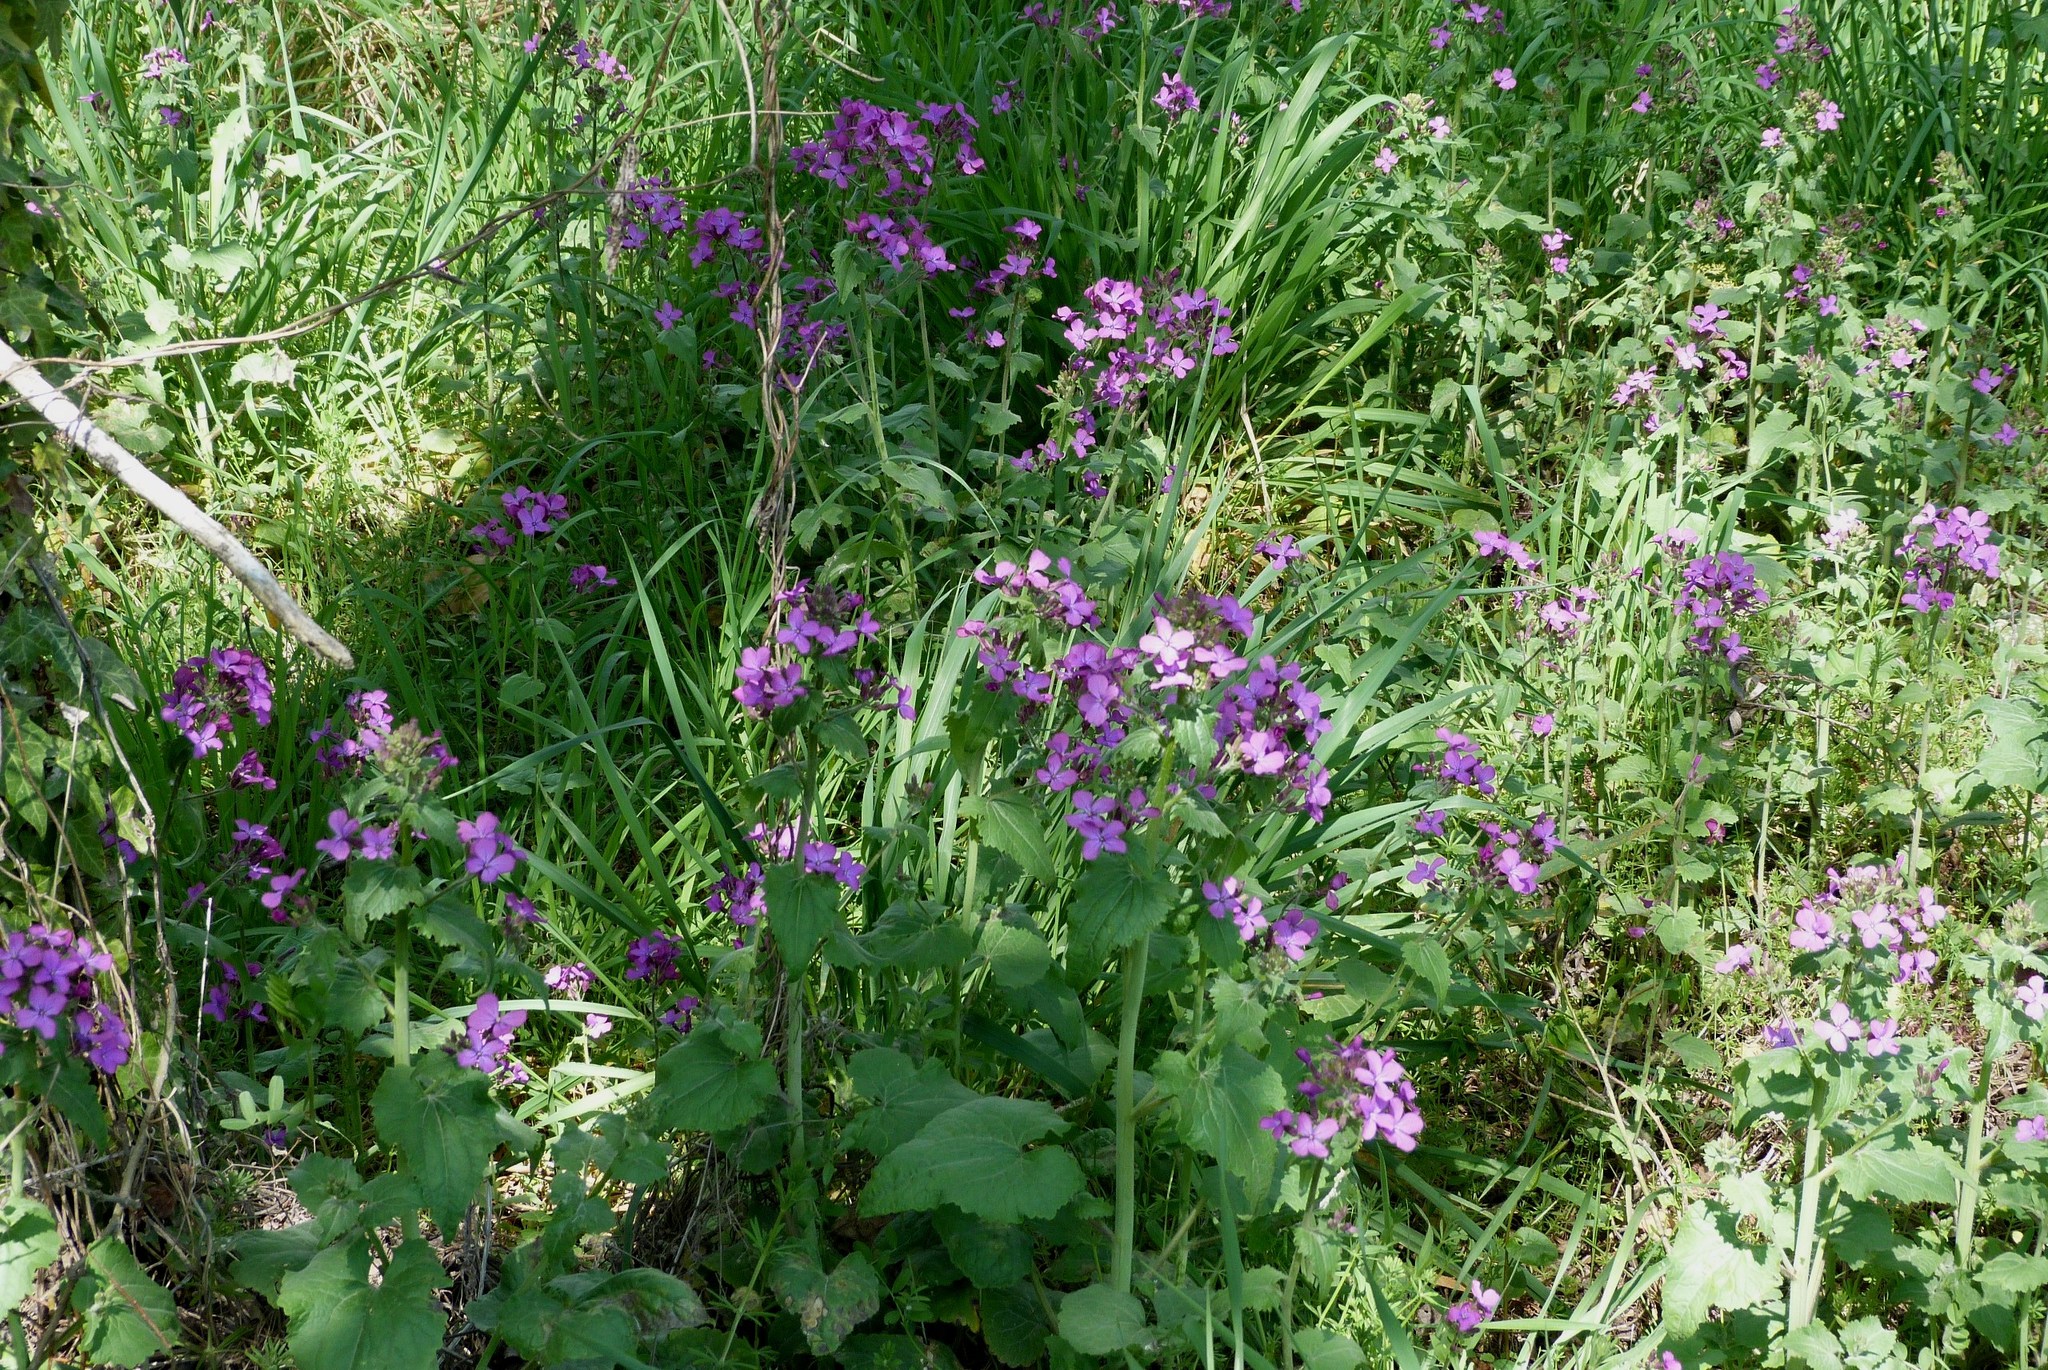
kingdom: Plantae
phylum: Tracheophyta
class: Magnoliopsida
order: Brassicales
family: Brassicaceae
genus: Lunaria
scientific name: Lunaria annua
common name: Honesty
